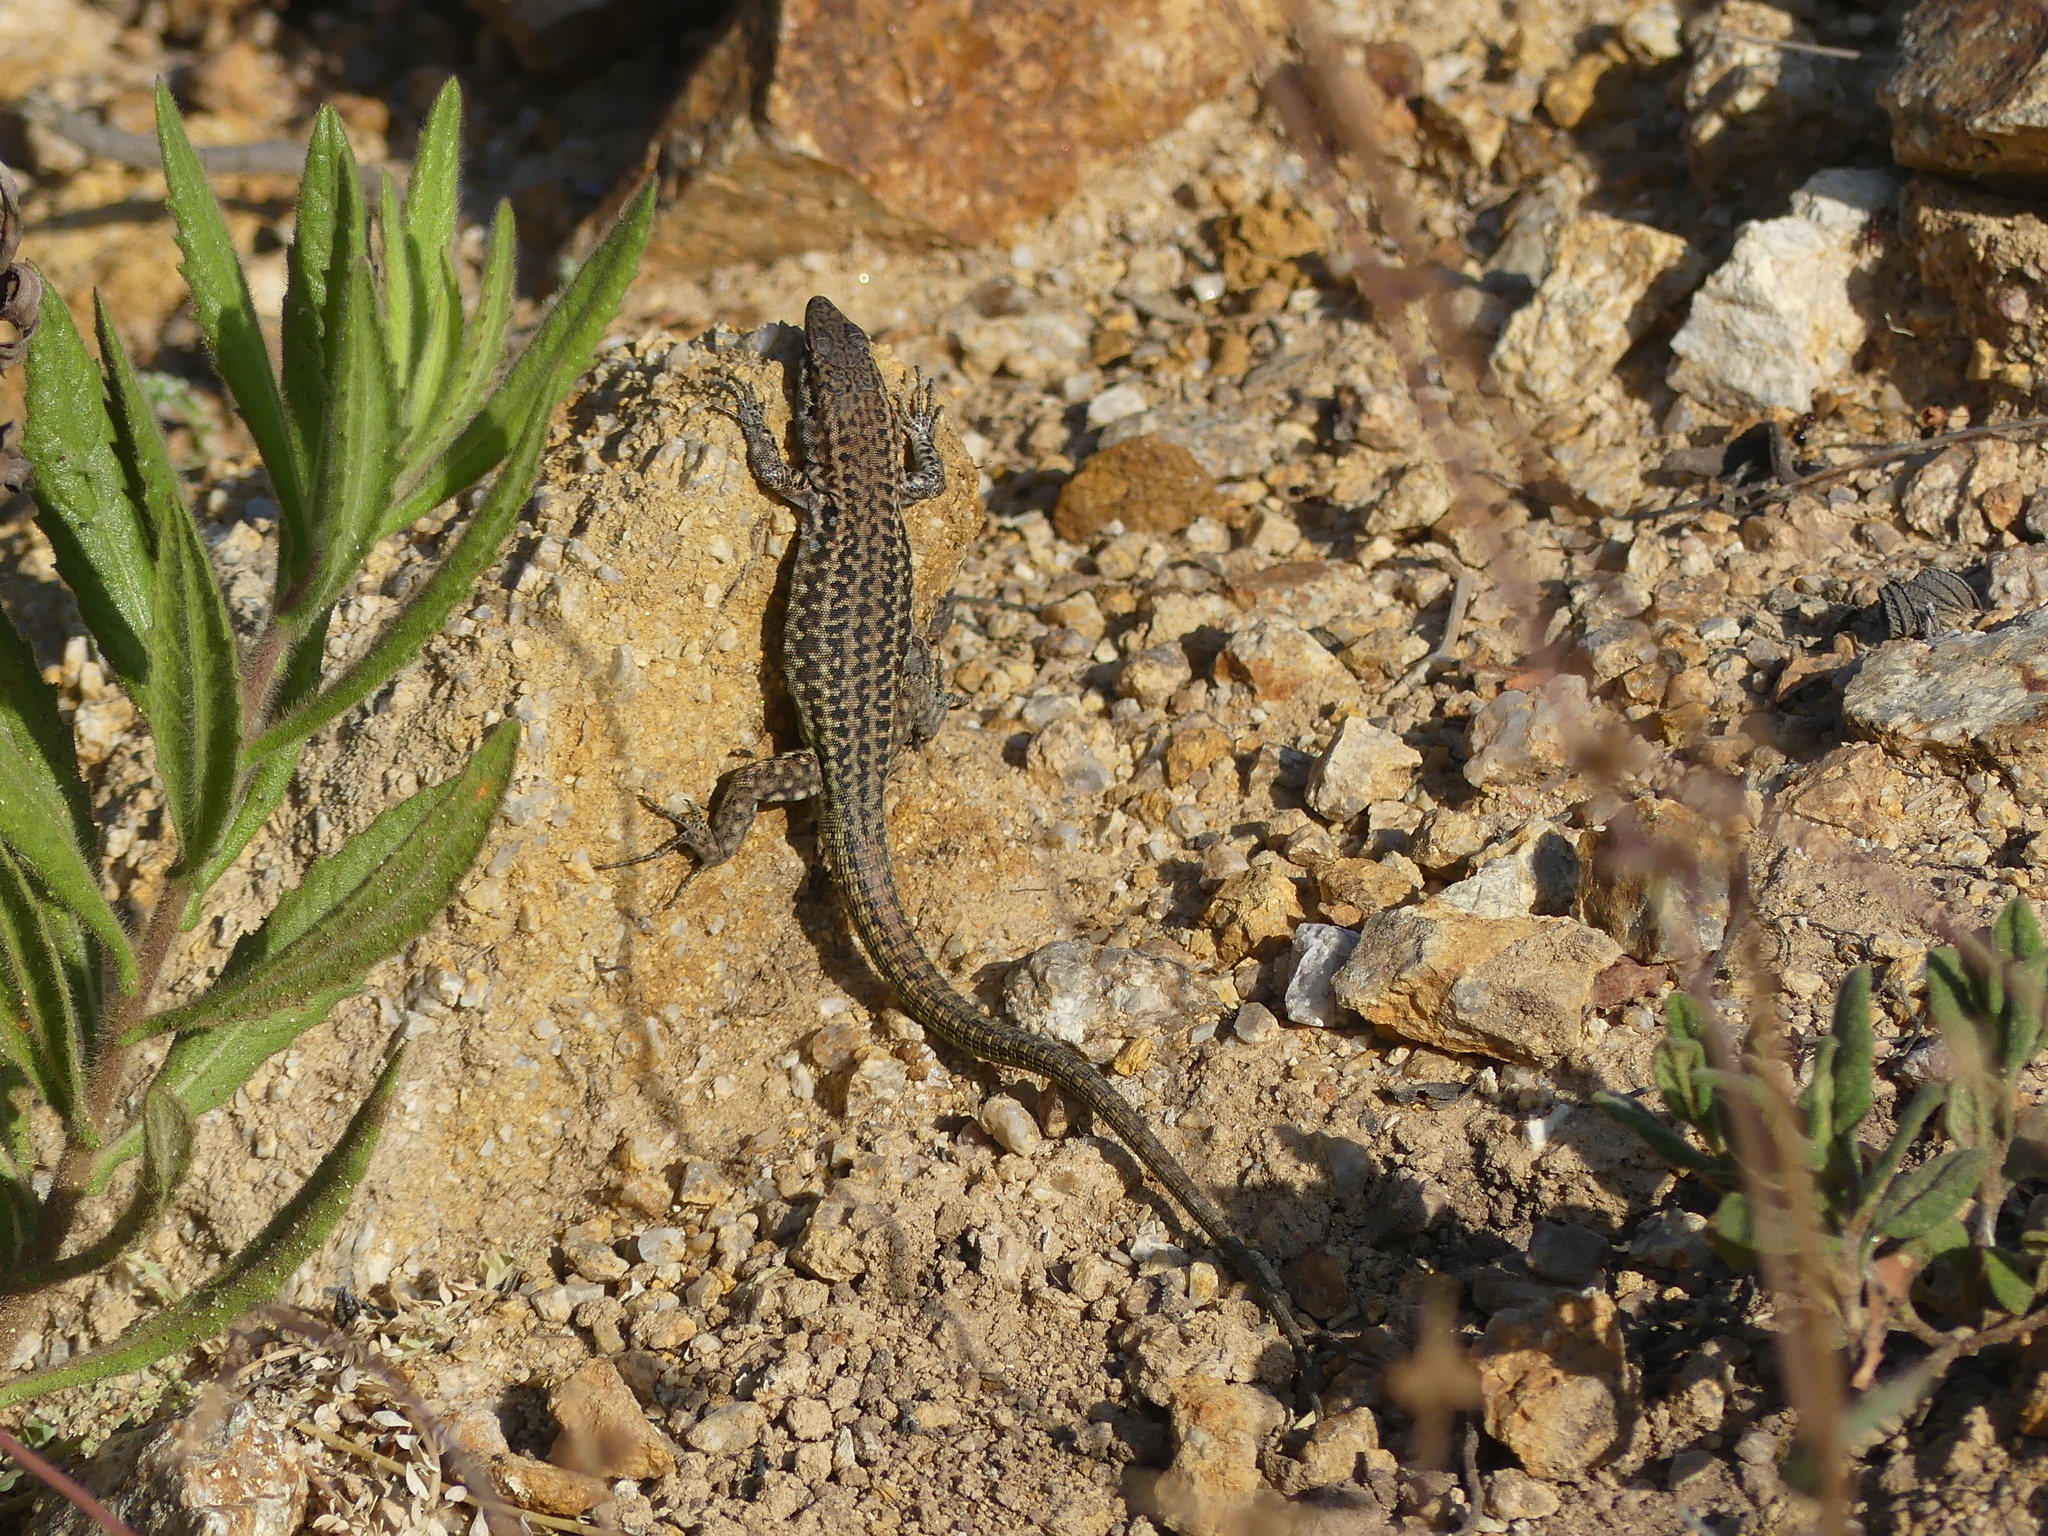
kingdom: Animalia
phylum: Chordata
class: Squamata
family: Lacertidae
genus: Podarcis
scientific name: Podarcis tiliguerta
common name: Tyrrhenian wall lizard
